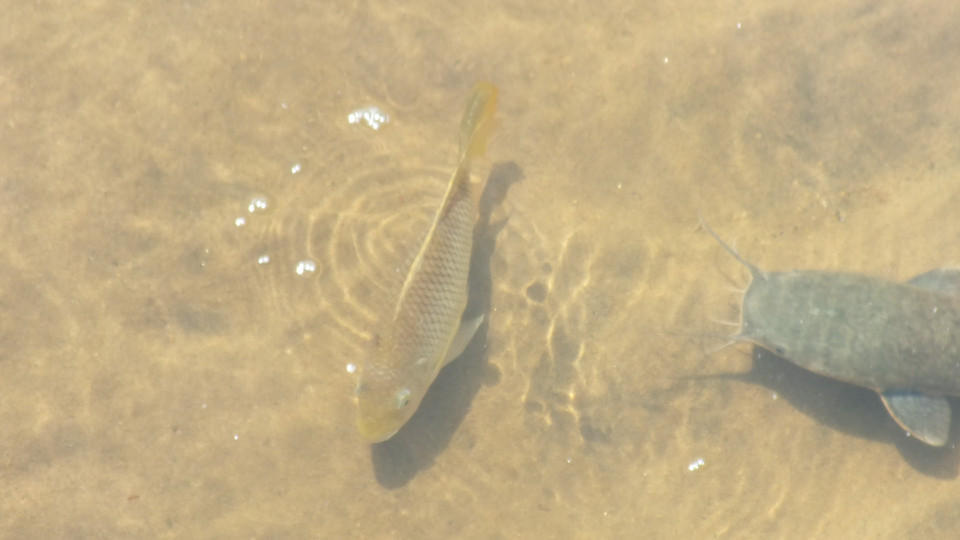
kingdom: Animalia
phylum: Chordata
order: Perciformes
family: Cichlidae
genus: Coptodon
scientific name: Coptodon rendalli
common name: Redbreast tilapia
